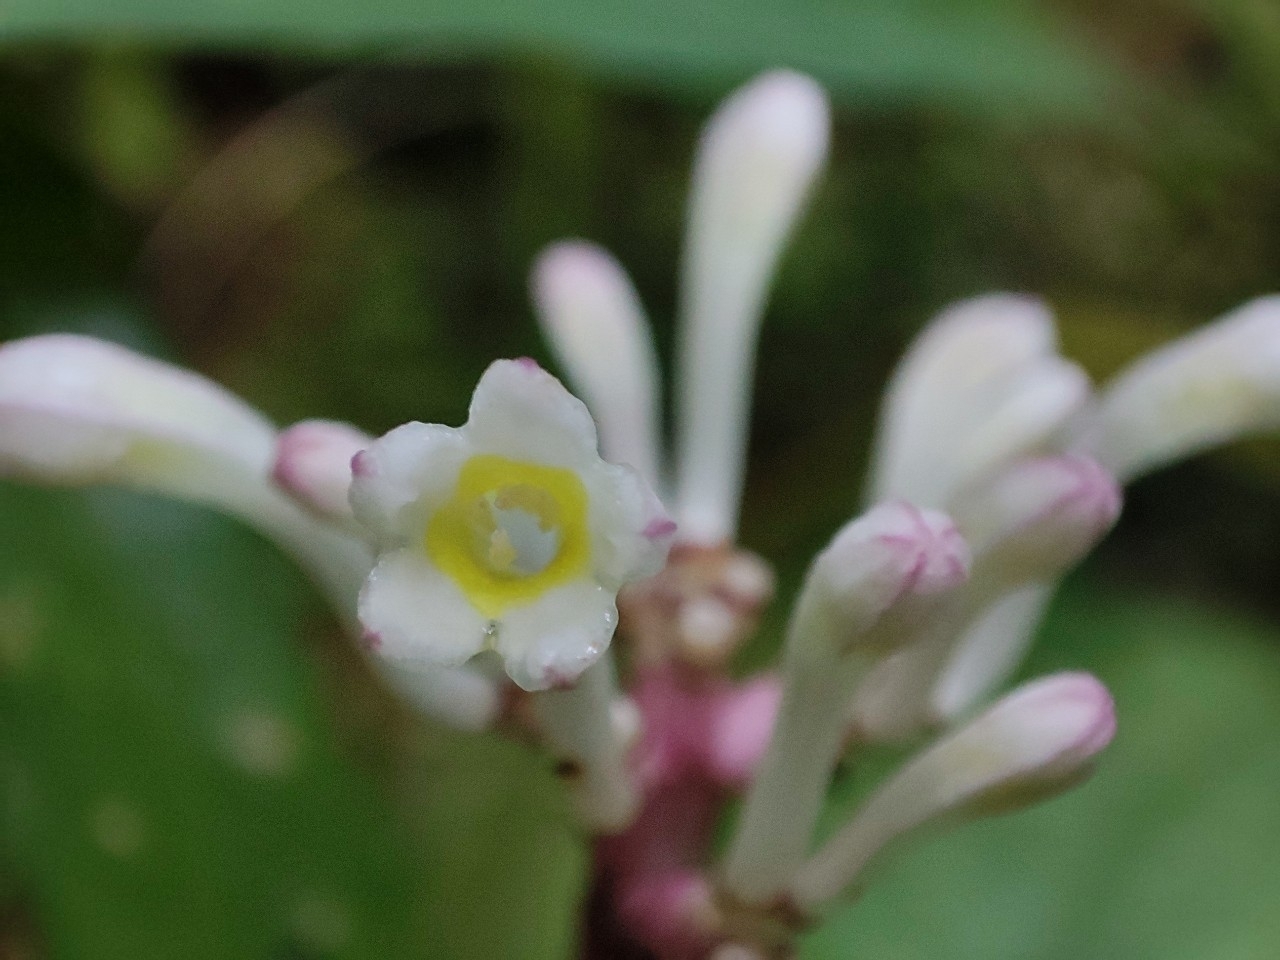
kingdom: Plantae
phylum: Tracheophyta
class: Magnoliopsida
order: Gentianales
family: Rubiaceae
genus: Chassalia
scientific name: Chassalia curviflora
